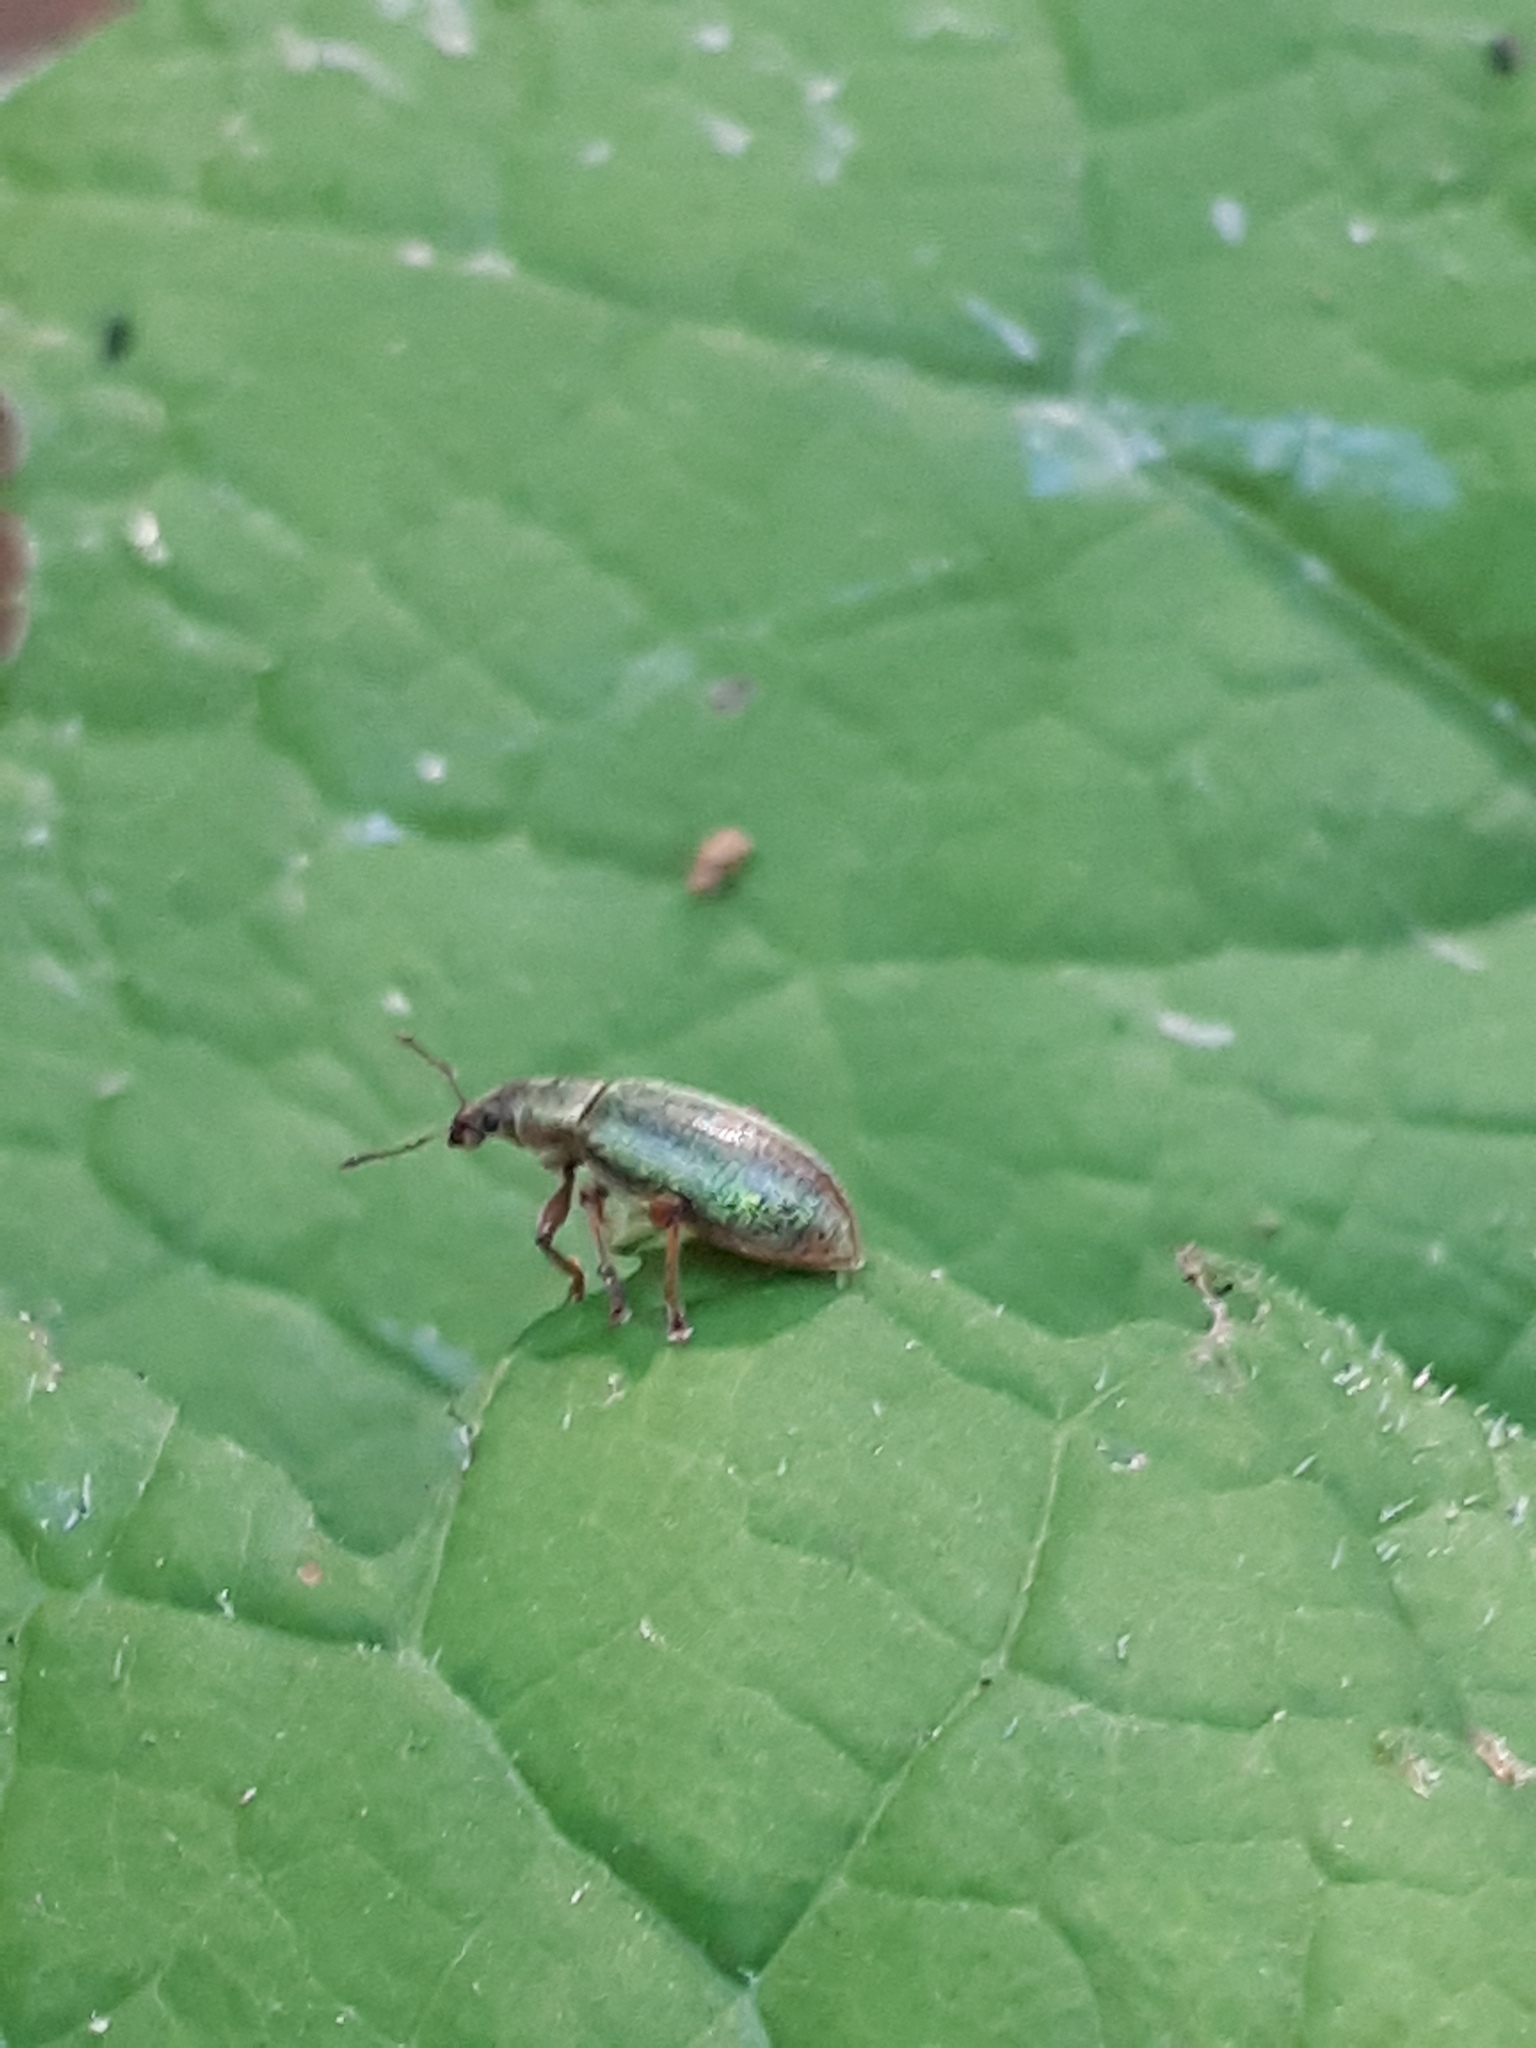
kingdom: Animalia
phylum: Arthropoda
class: Insecta
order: Coleoptera
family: Curculionidae
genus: Polydrusus
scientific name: Polydrusus viridinitens
